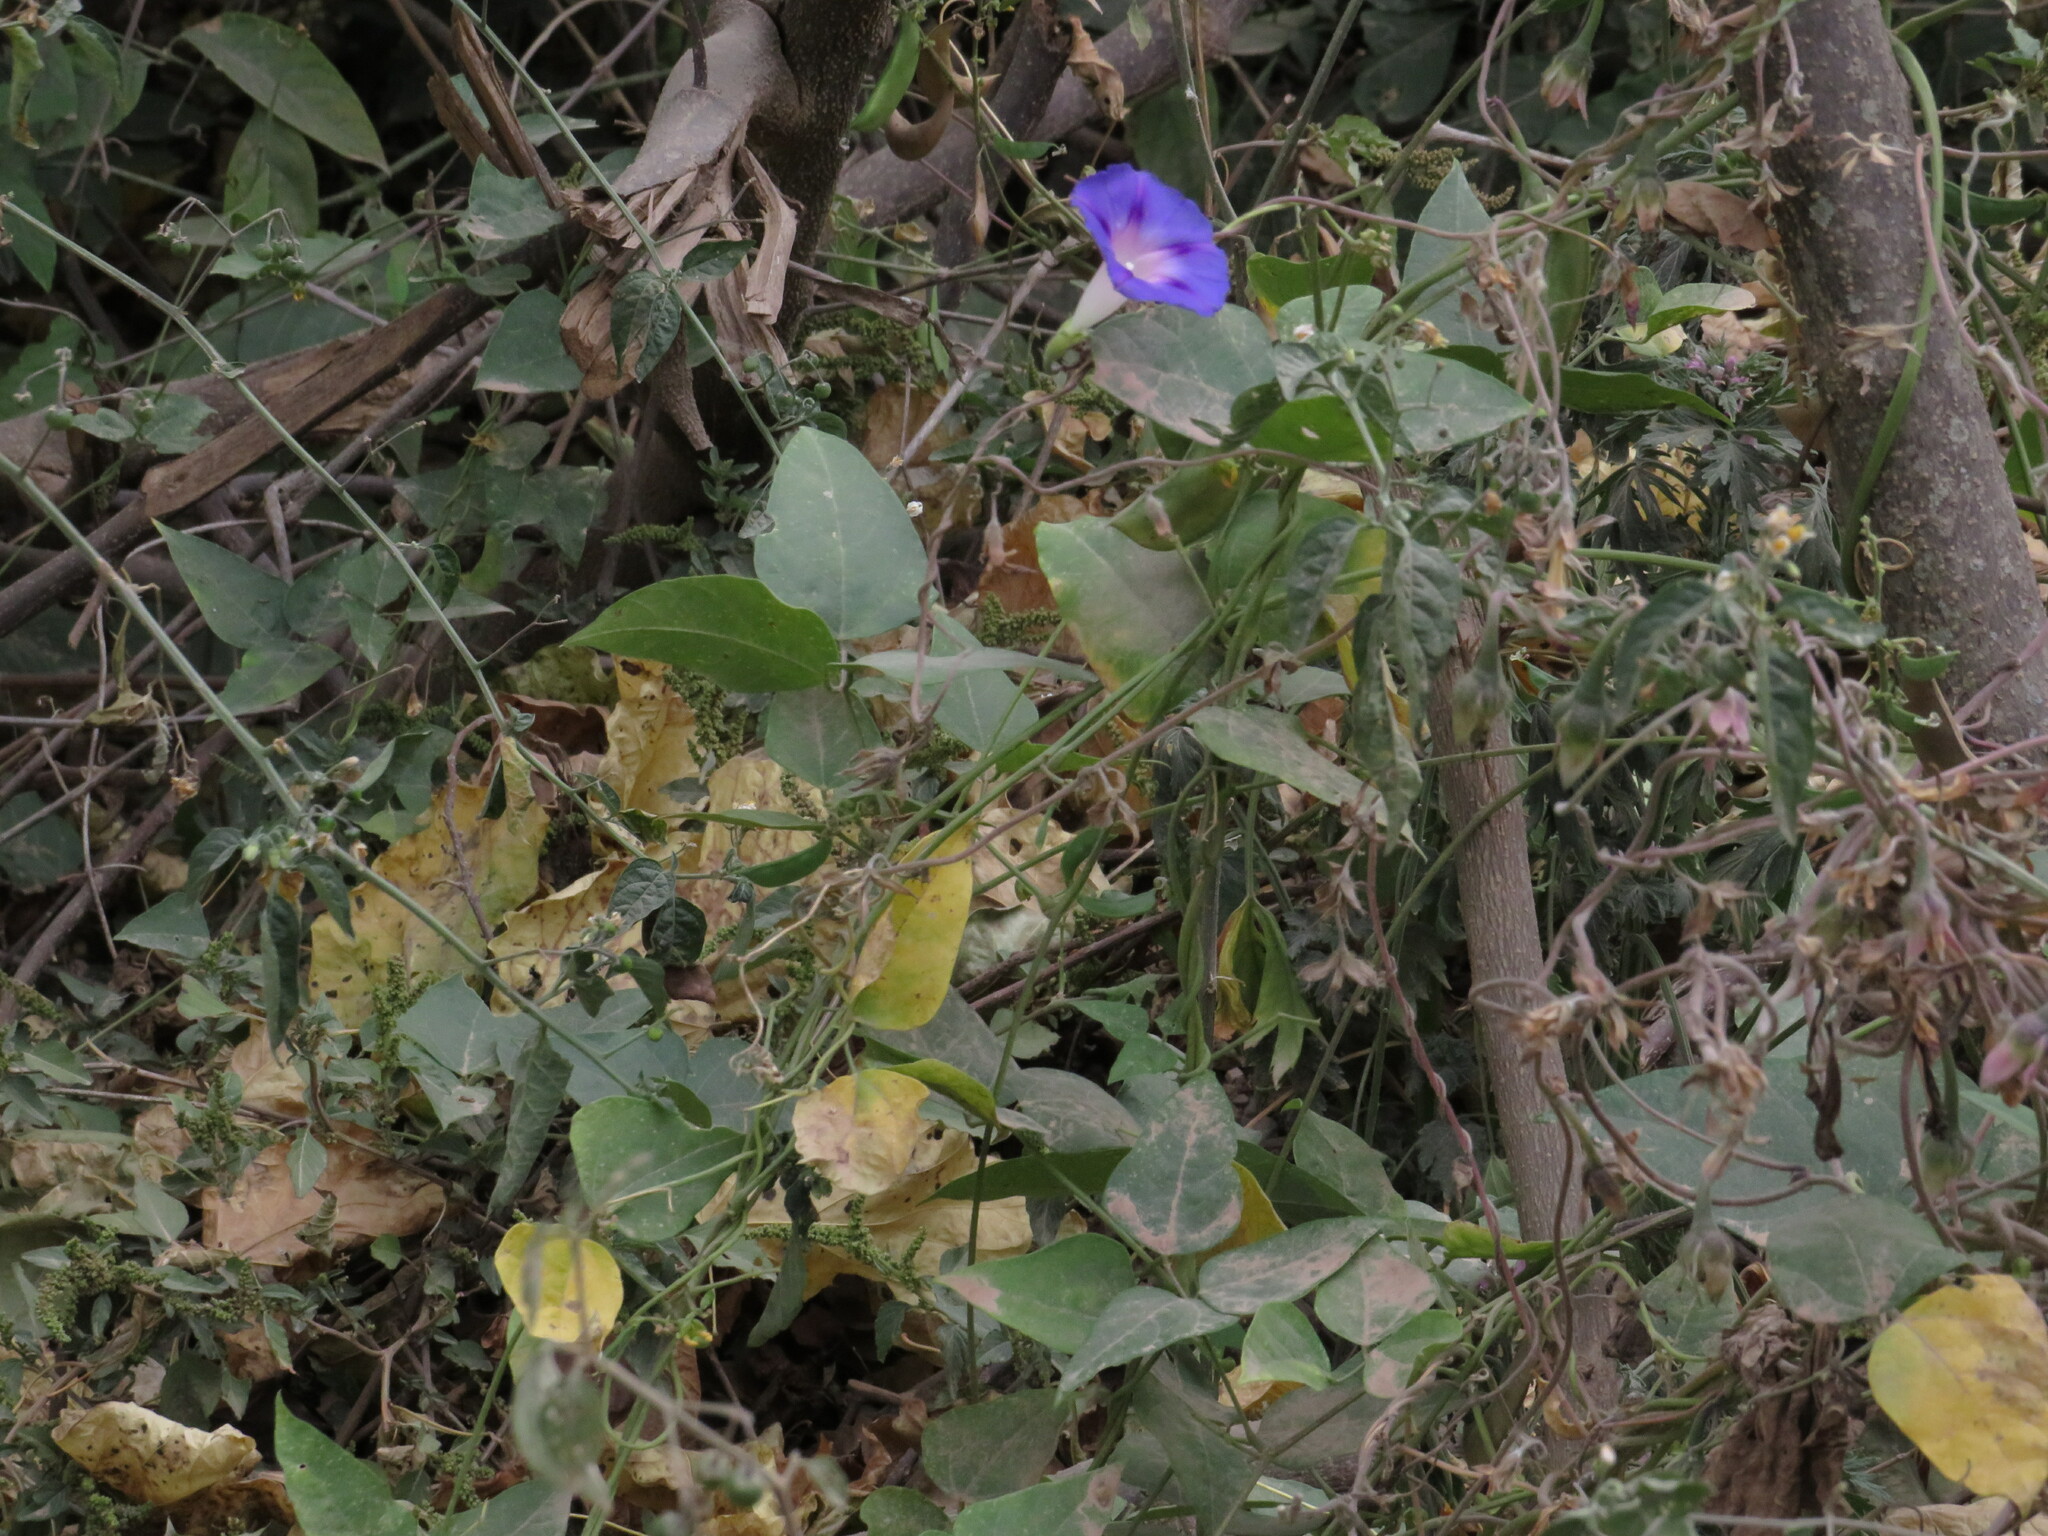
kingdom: Plantae
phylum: Tracheophyta
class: Magnoliopsida
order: Solanales
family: Convolvulaceae
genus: Ipomoea
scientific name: Ipomoea purpurea
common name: Common morning-glory
